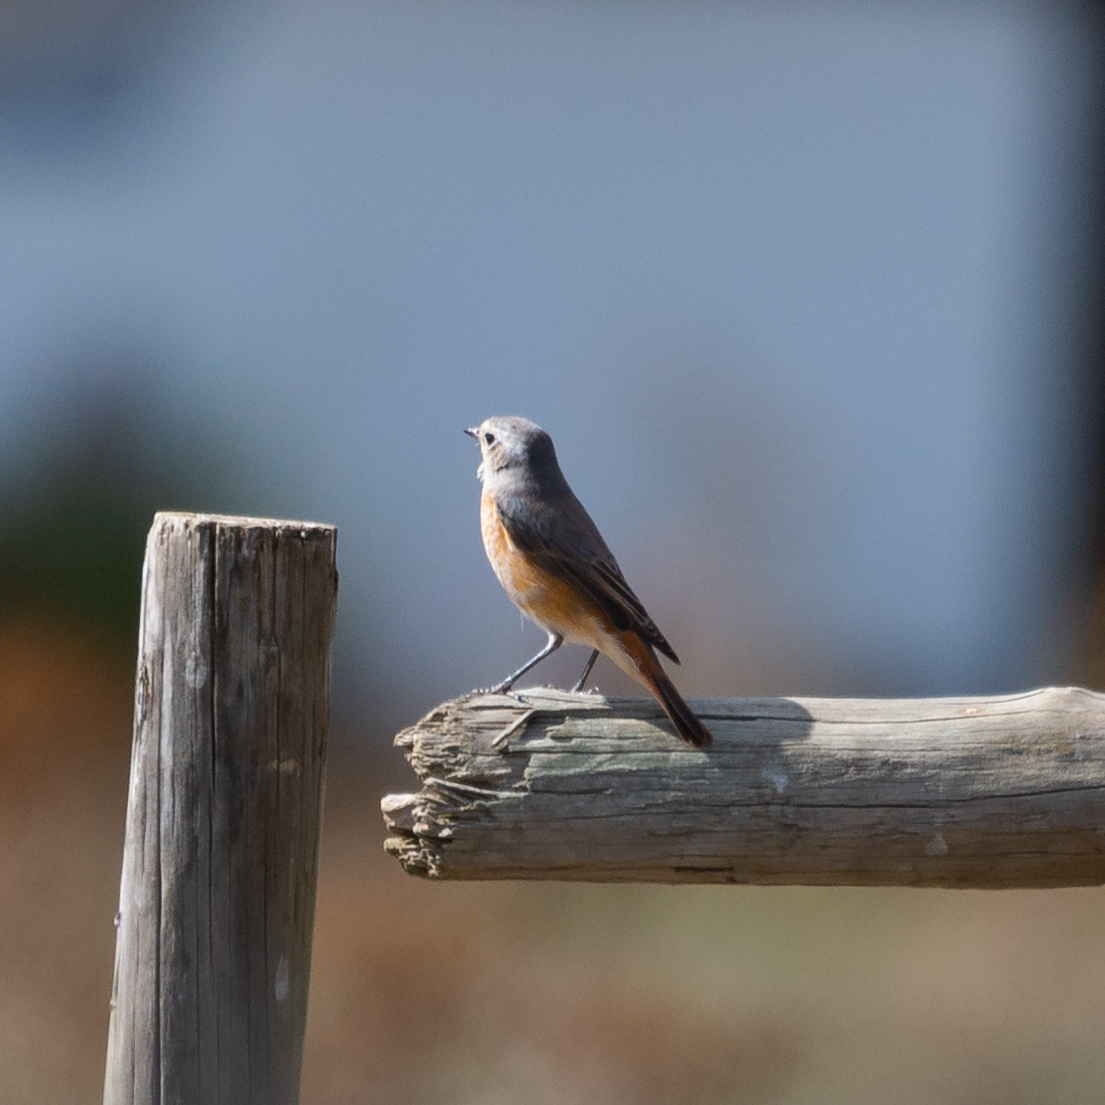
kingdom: Animalia
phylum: Chordata
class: Aves
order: Passeriformes
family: Muscicapidae
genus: Phoenicurus
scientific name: Phoenicurus phoenicurus
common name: Common redstart
